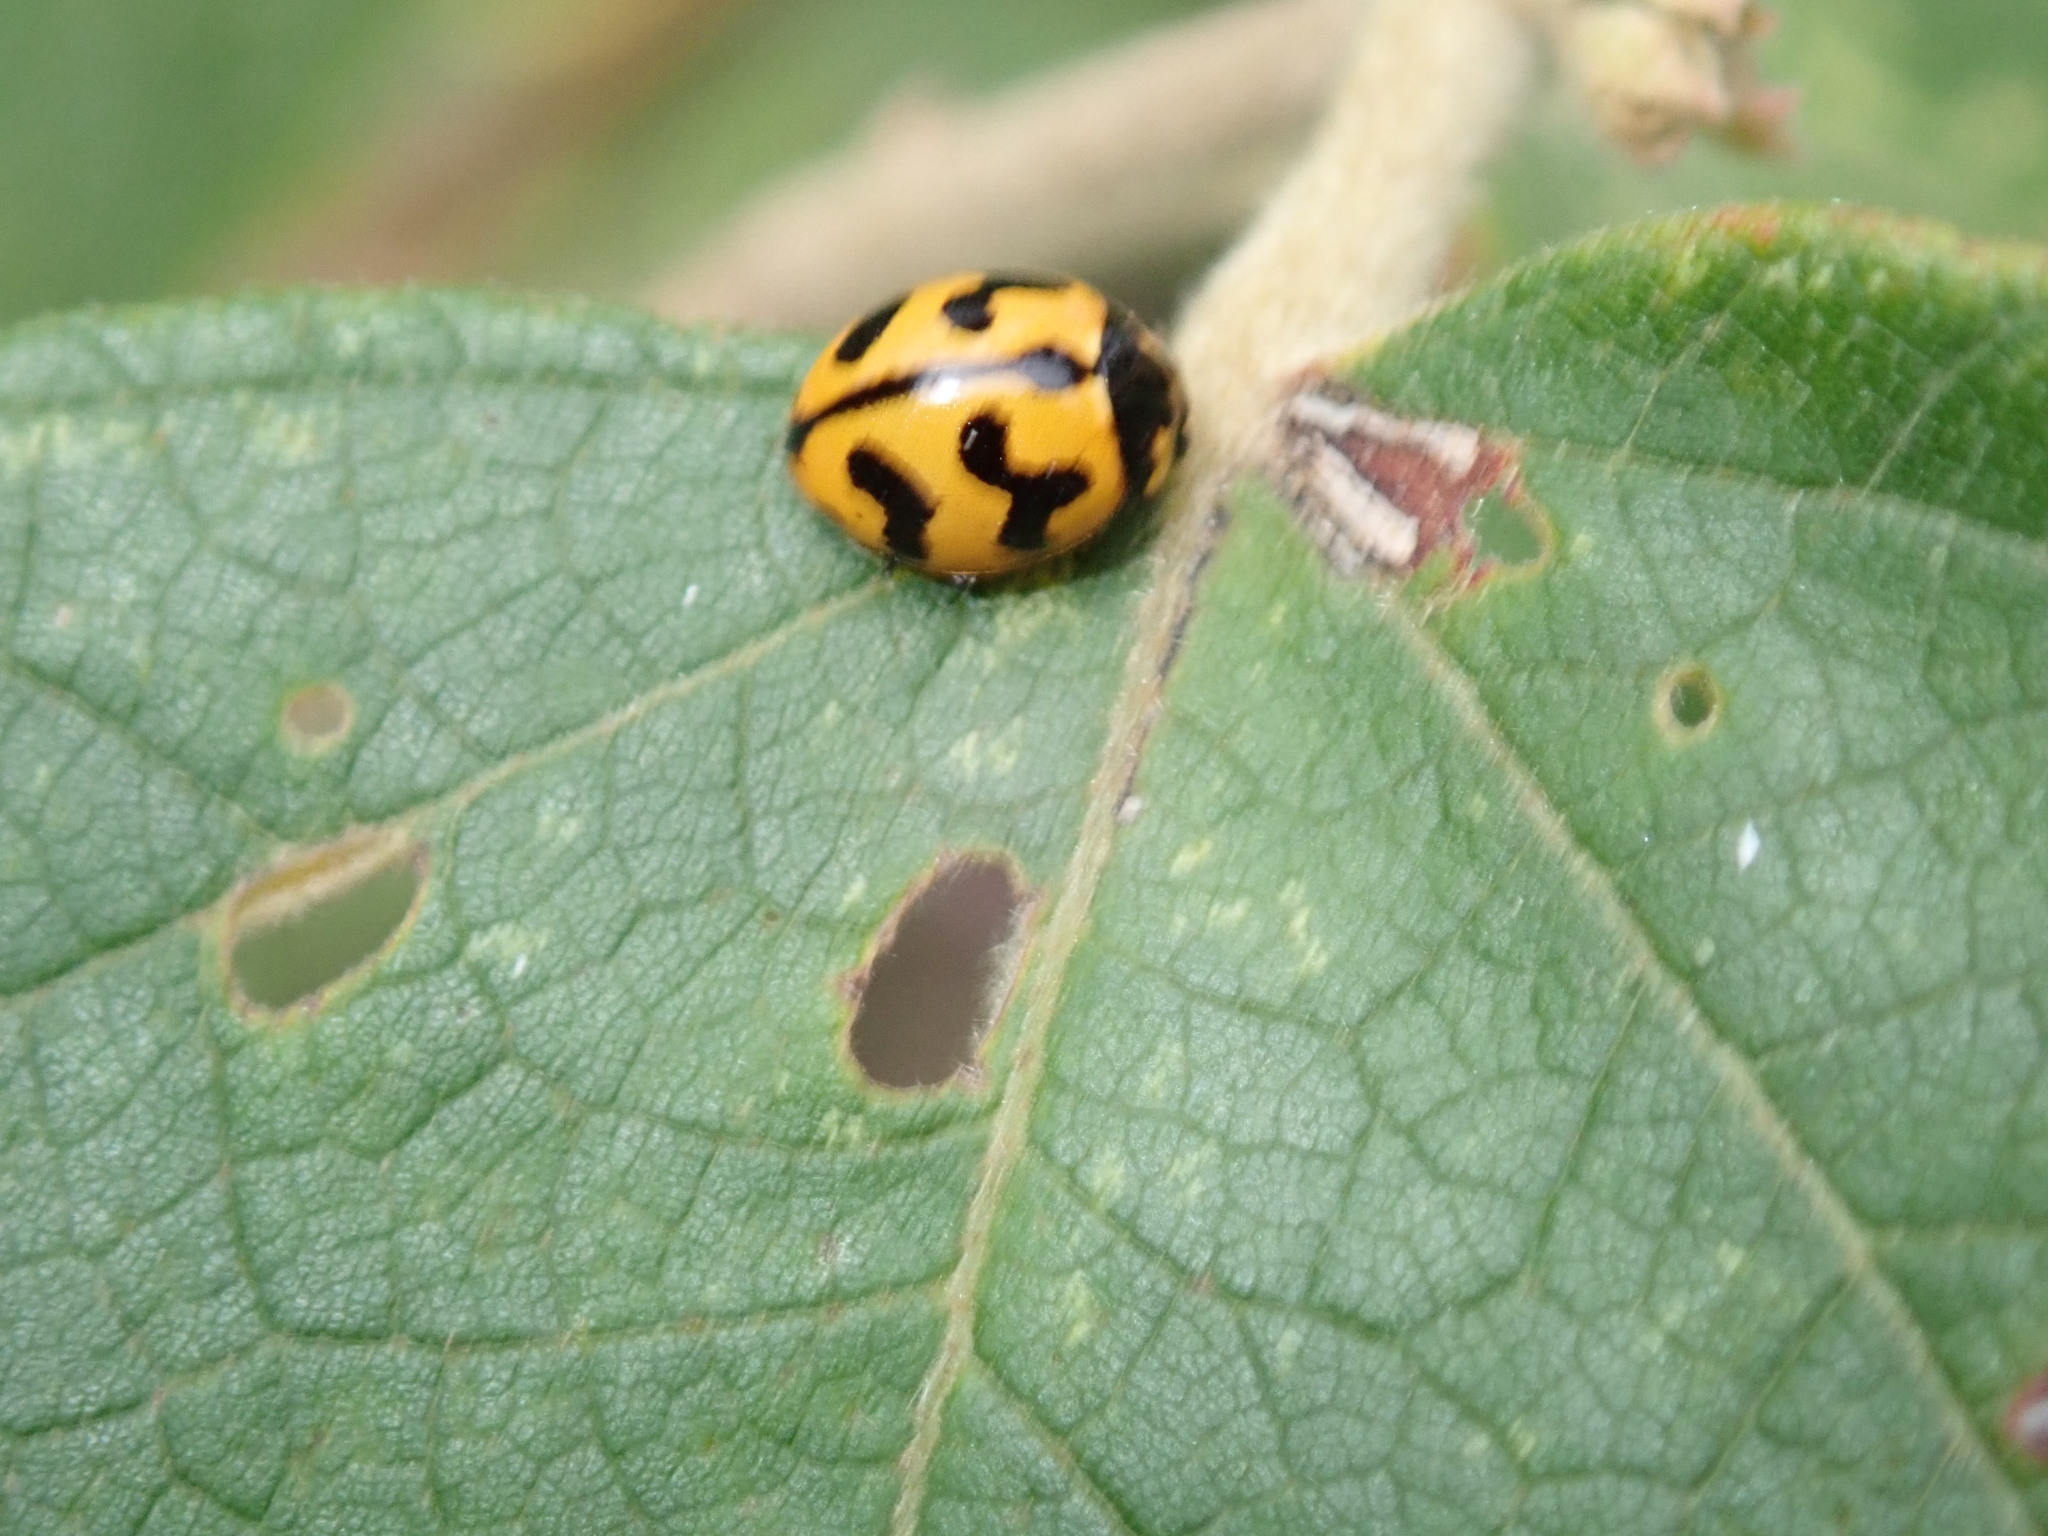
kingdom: Animalia
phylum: Arthropoda
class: Insecta
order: Coleoptera
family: Coccinellidae
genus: Coccinella
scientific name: Coccinella transversalis
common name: Transverse lady beetle
